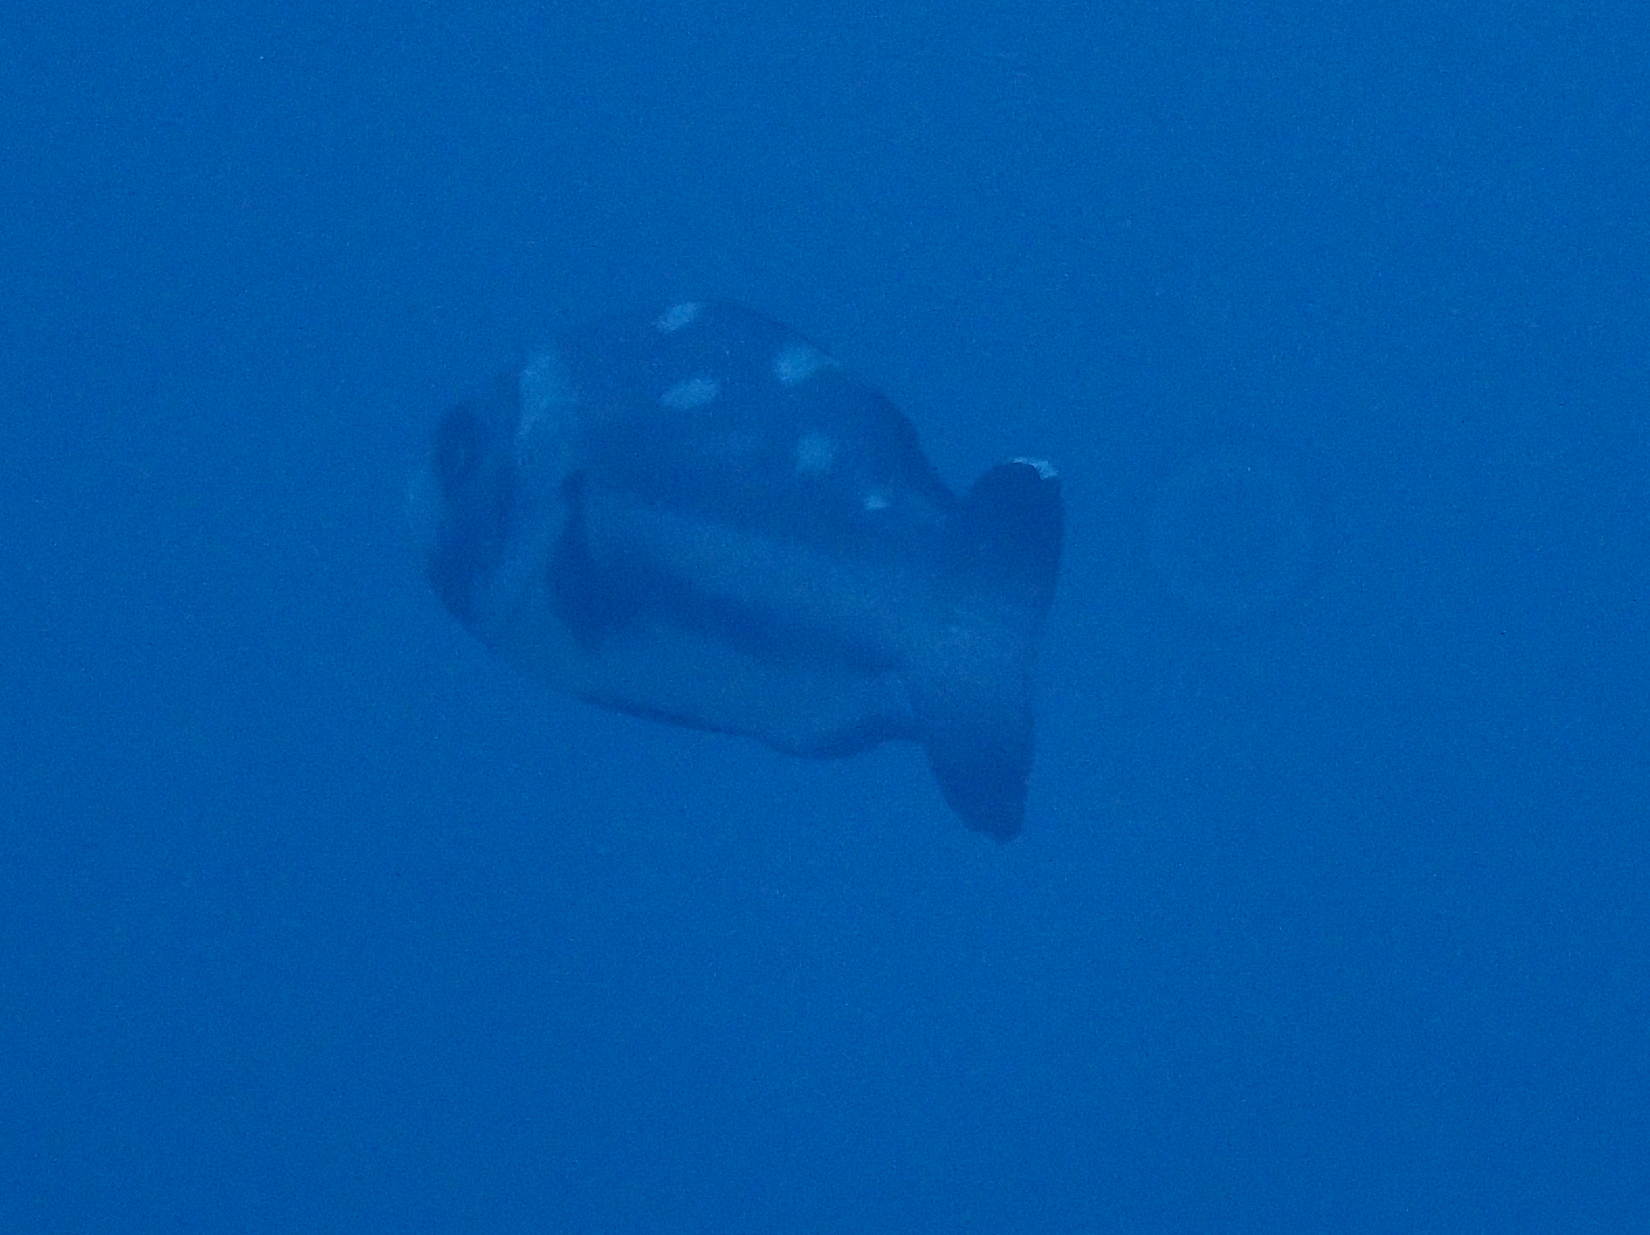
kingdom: Animalia
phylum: Chordata
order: Perciformes
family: Lutjanidae
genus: Macolor
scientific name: Macolor niger
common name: Black snapper
